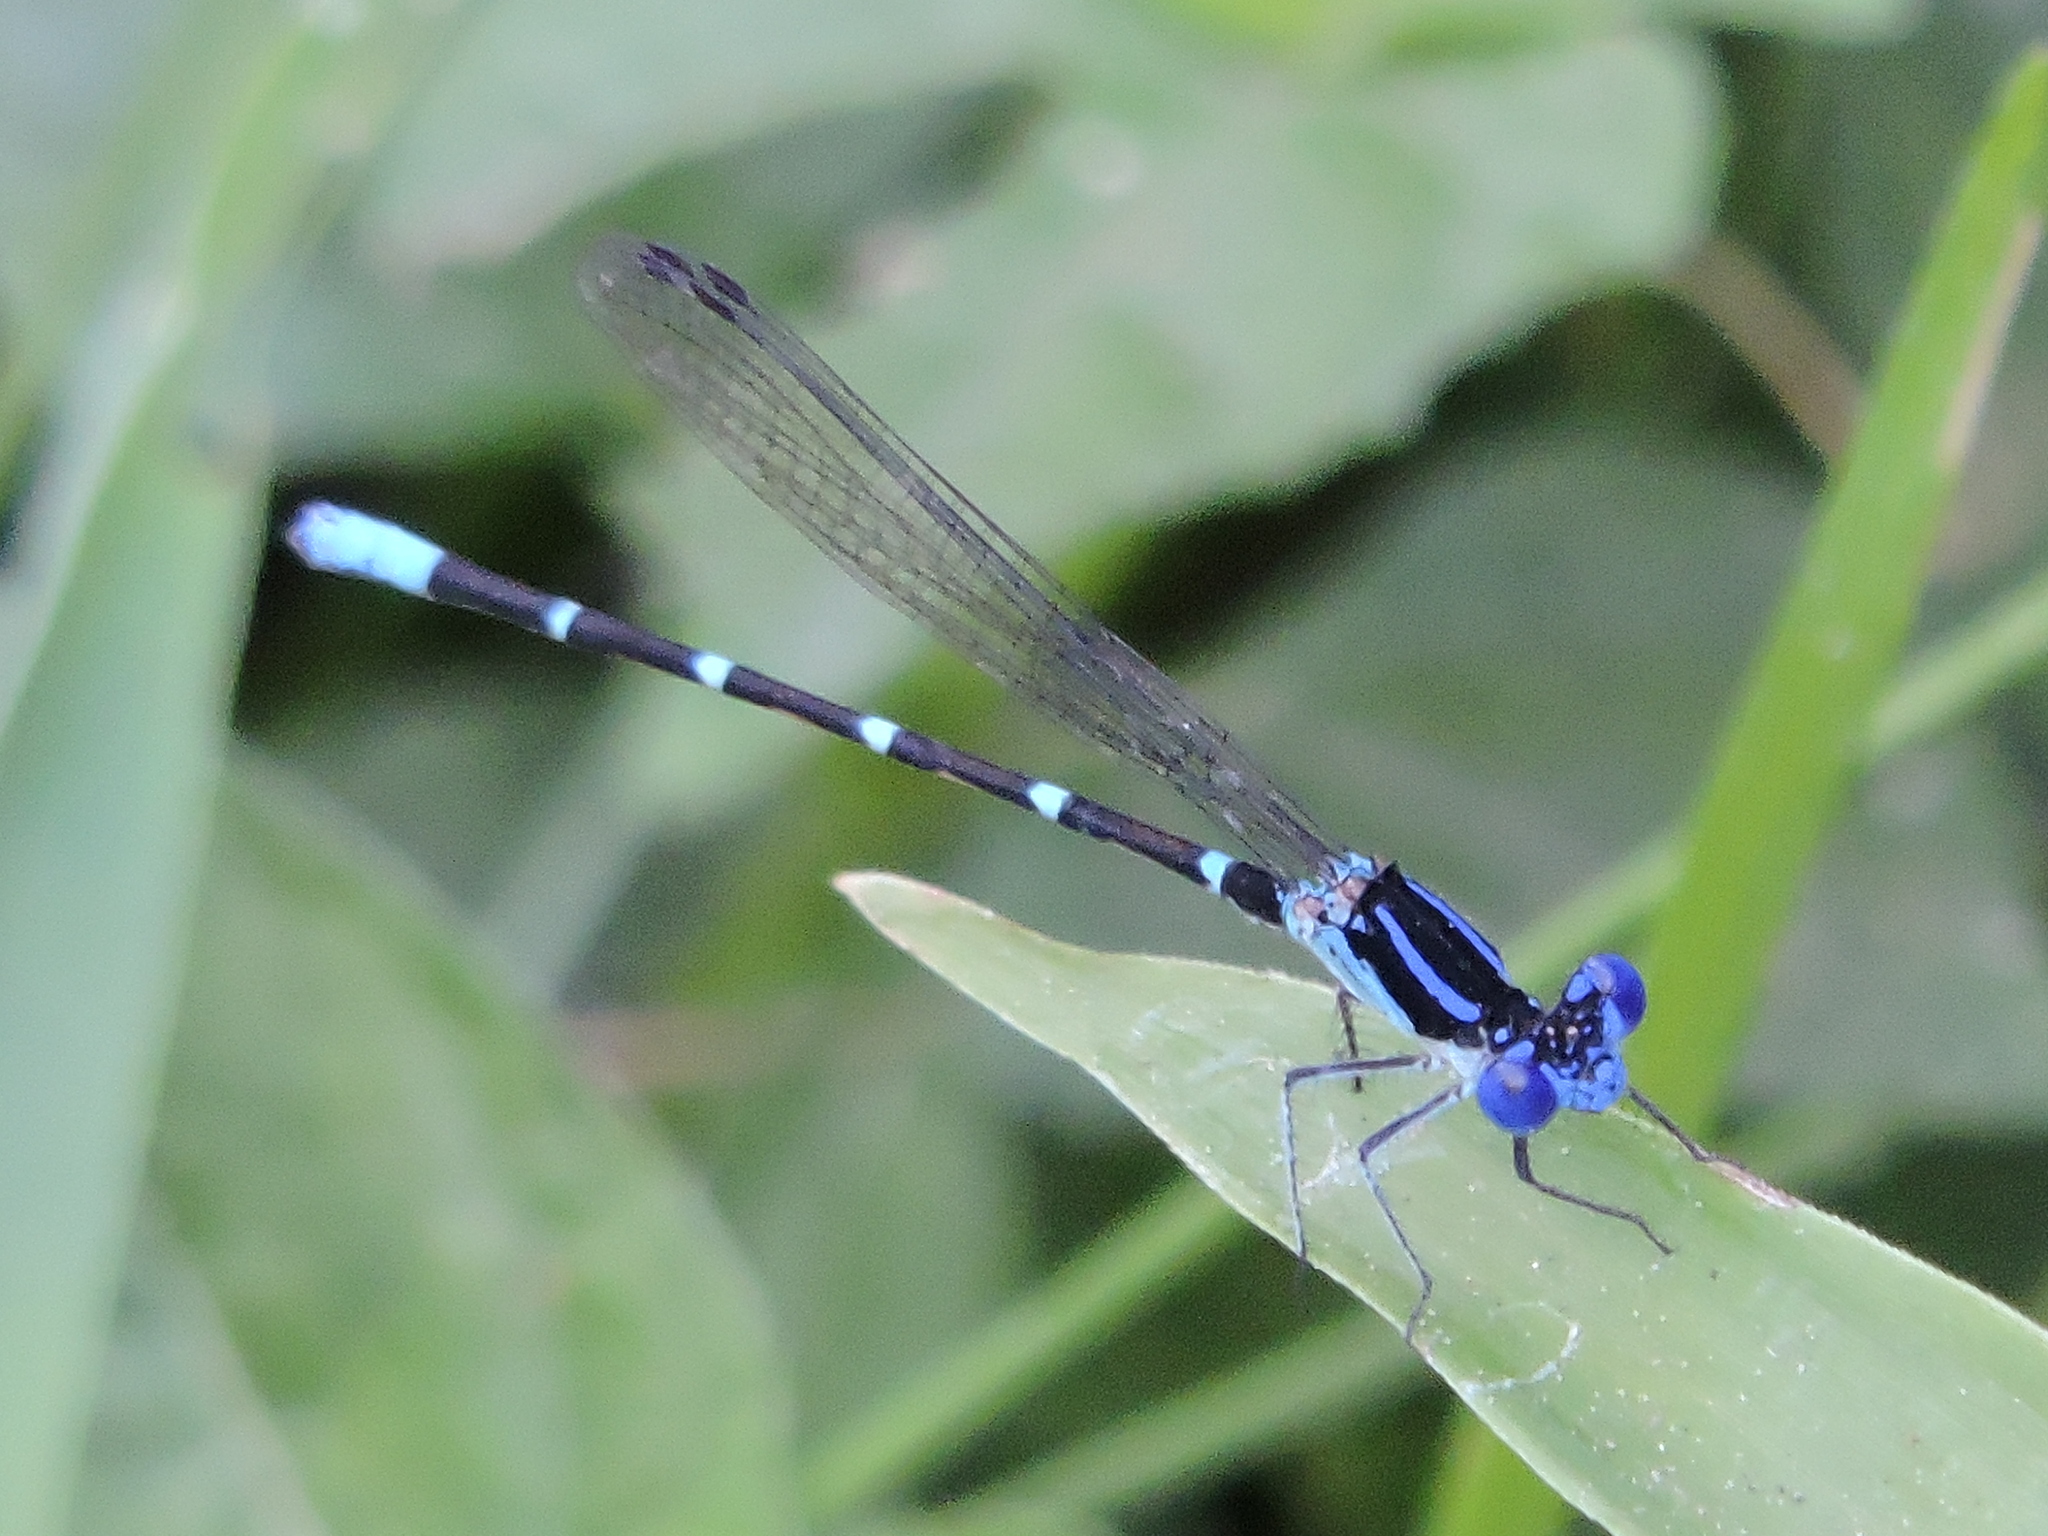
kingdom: Animalia
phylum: Arthropoda
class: Insecta
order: Odonata
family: Coenagrionidae
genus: Argia
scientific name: Argia sedula
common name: Blue-ringed dancer
